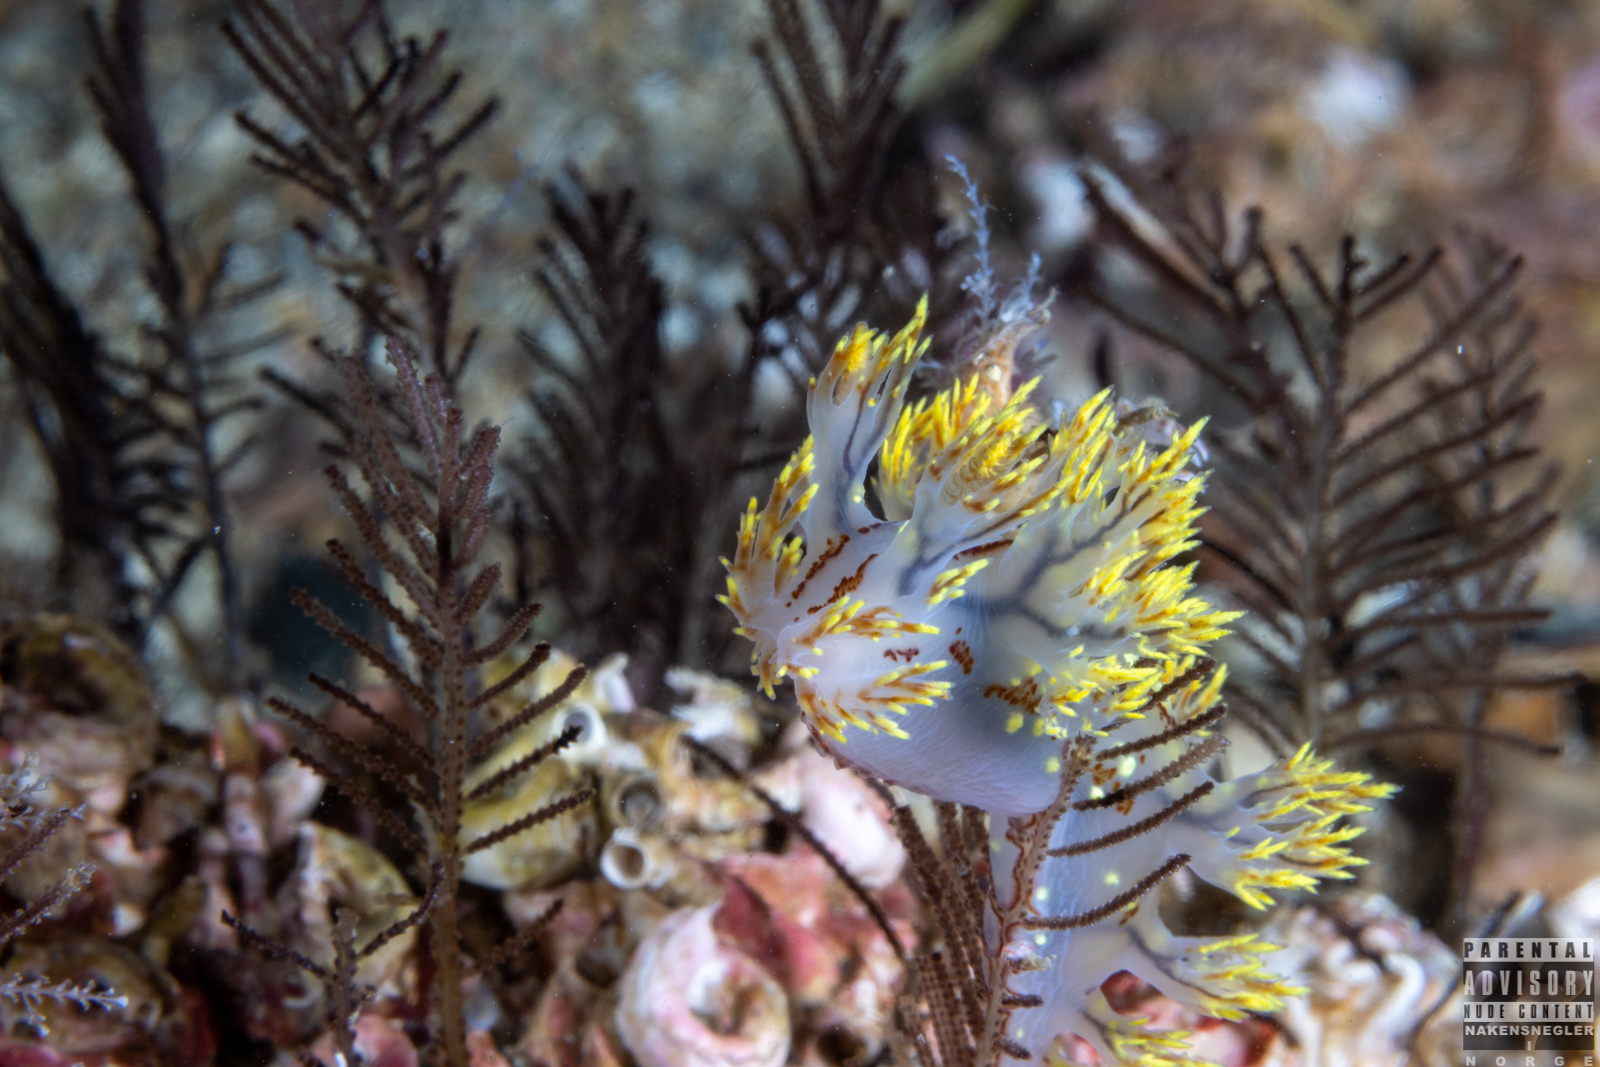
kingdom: Animalia
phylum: Mollusca
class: Gastropoda
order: Nudibranchia
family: Dendronotidae
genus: Dendronotus
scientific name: Dendronotus yrjargul
